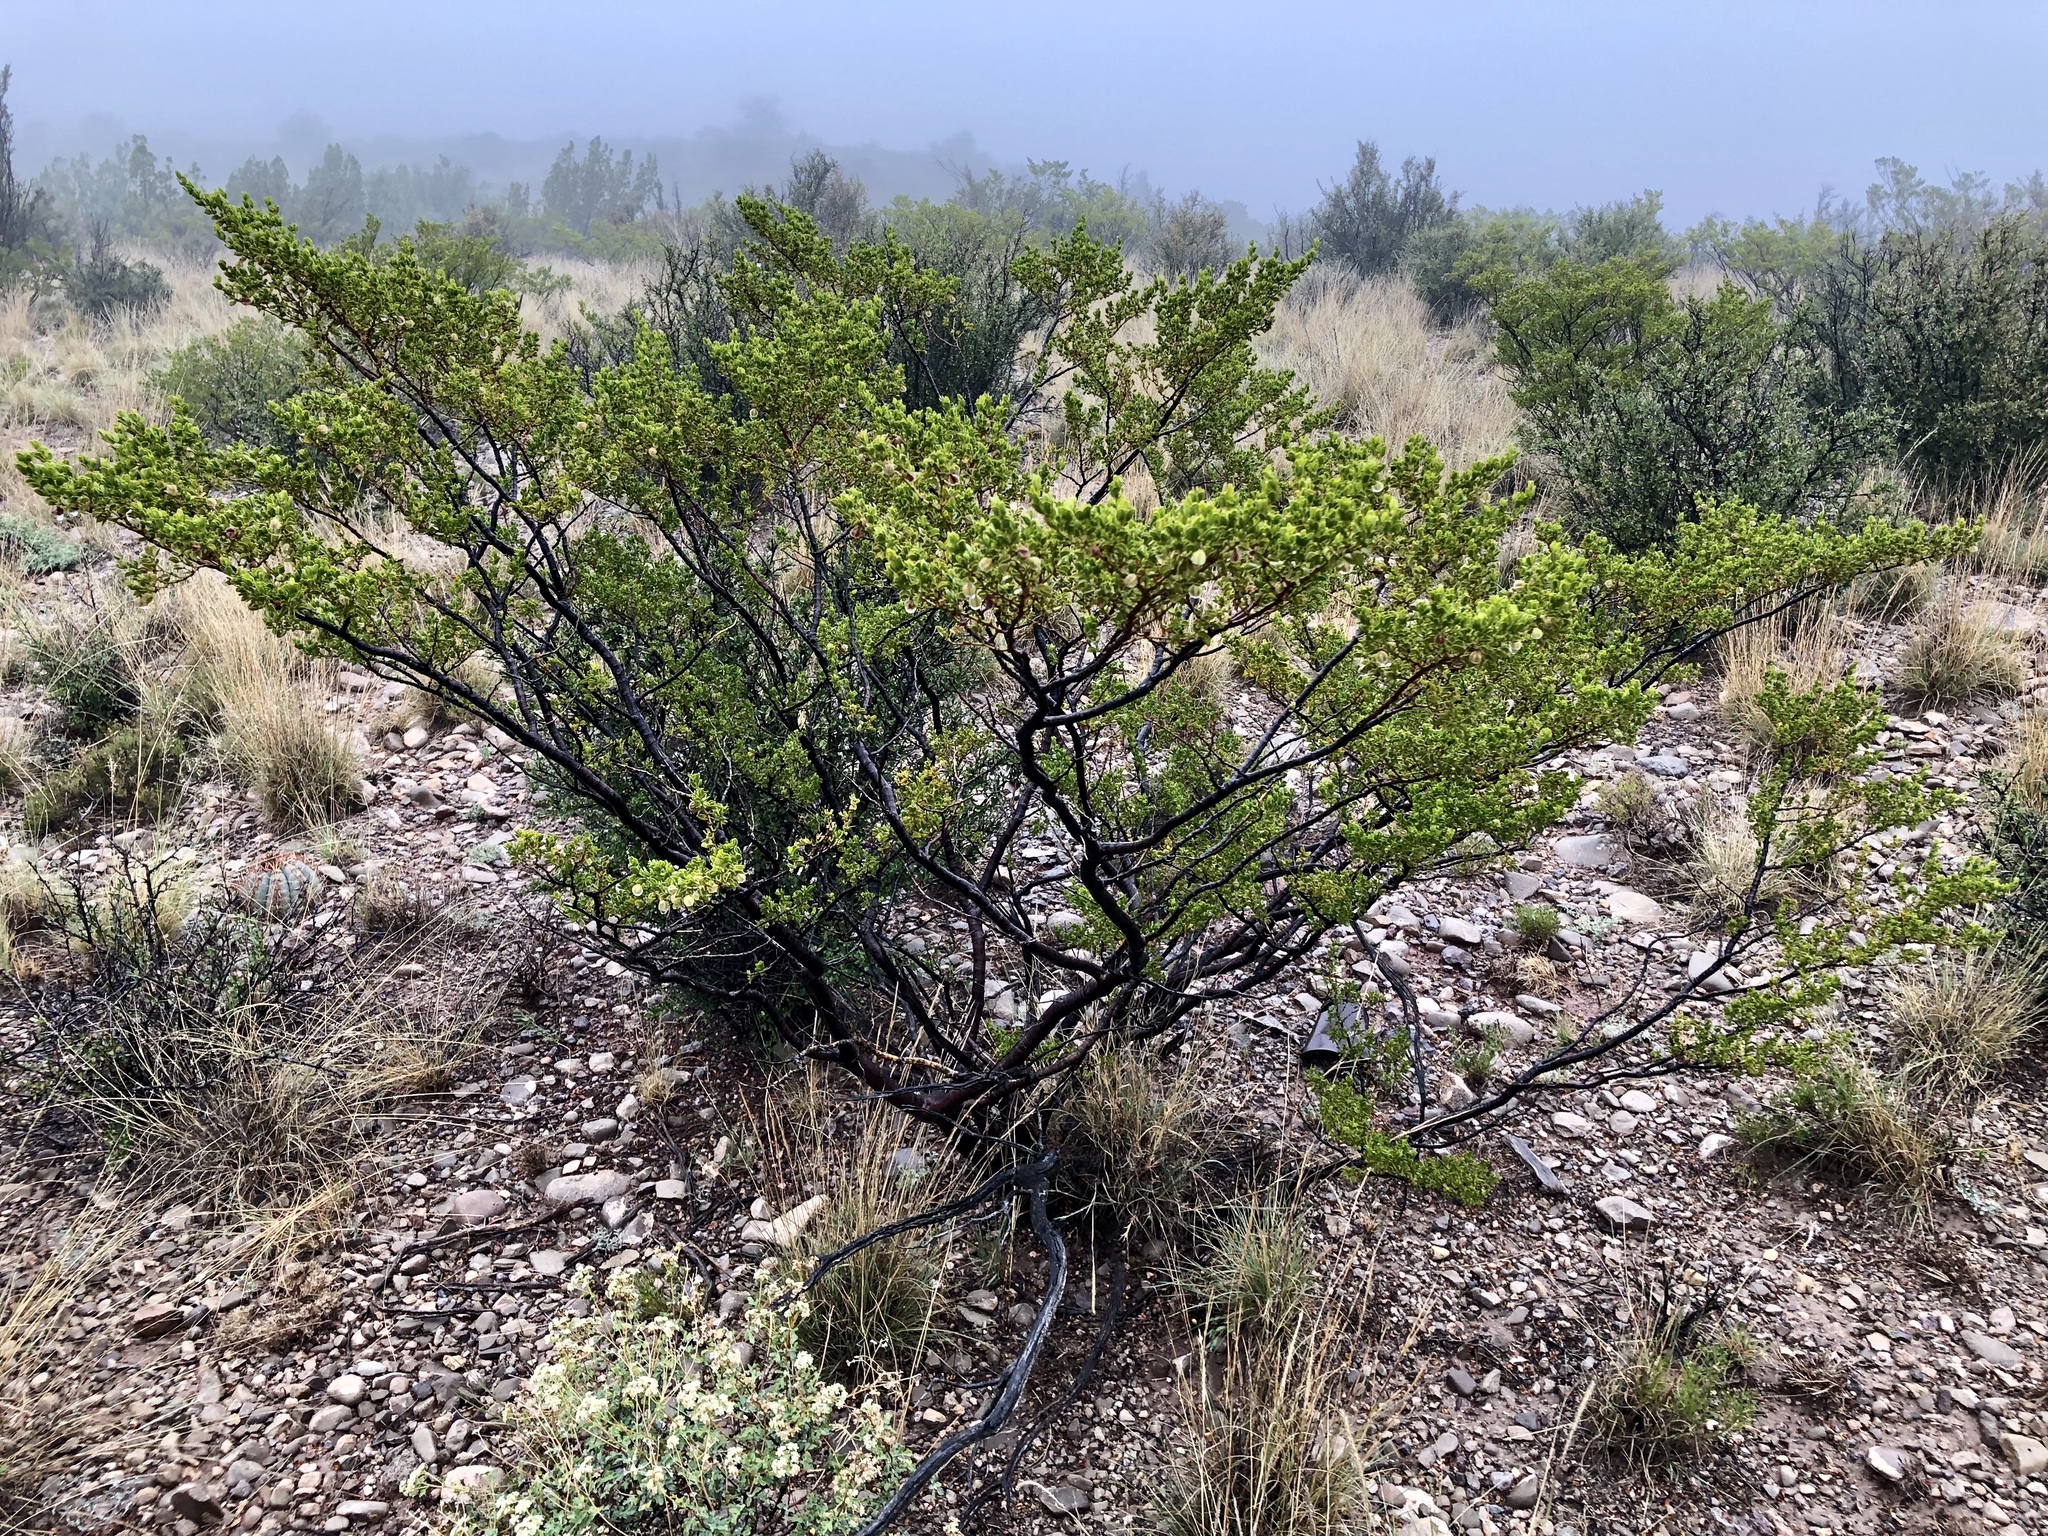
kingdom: Plantae
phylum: Tracheophyta
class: Magnoliopsida
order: Zygophyllales
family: Zygophyllaceae
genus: Larrea
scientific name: Larrea tridentata
